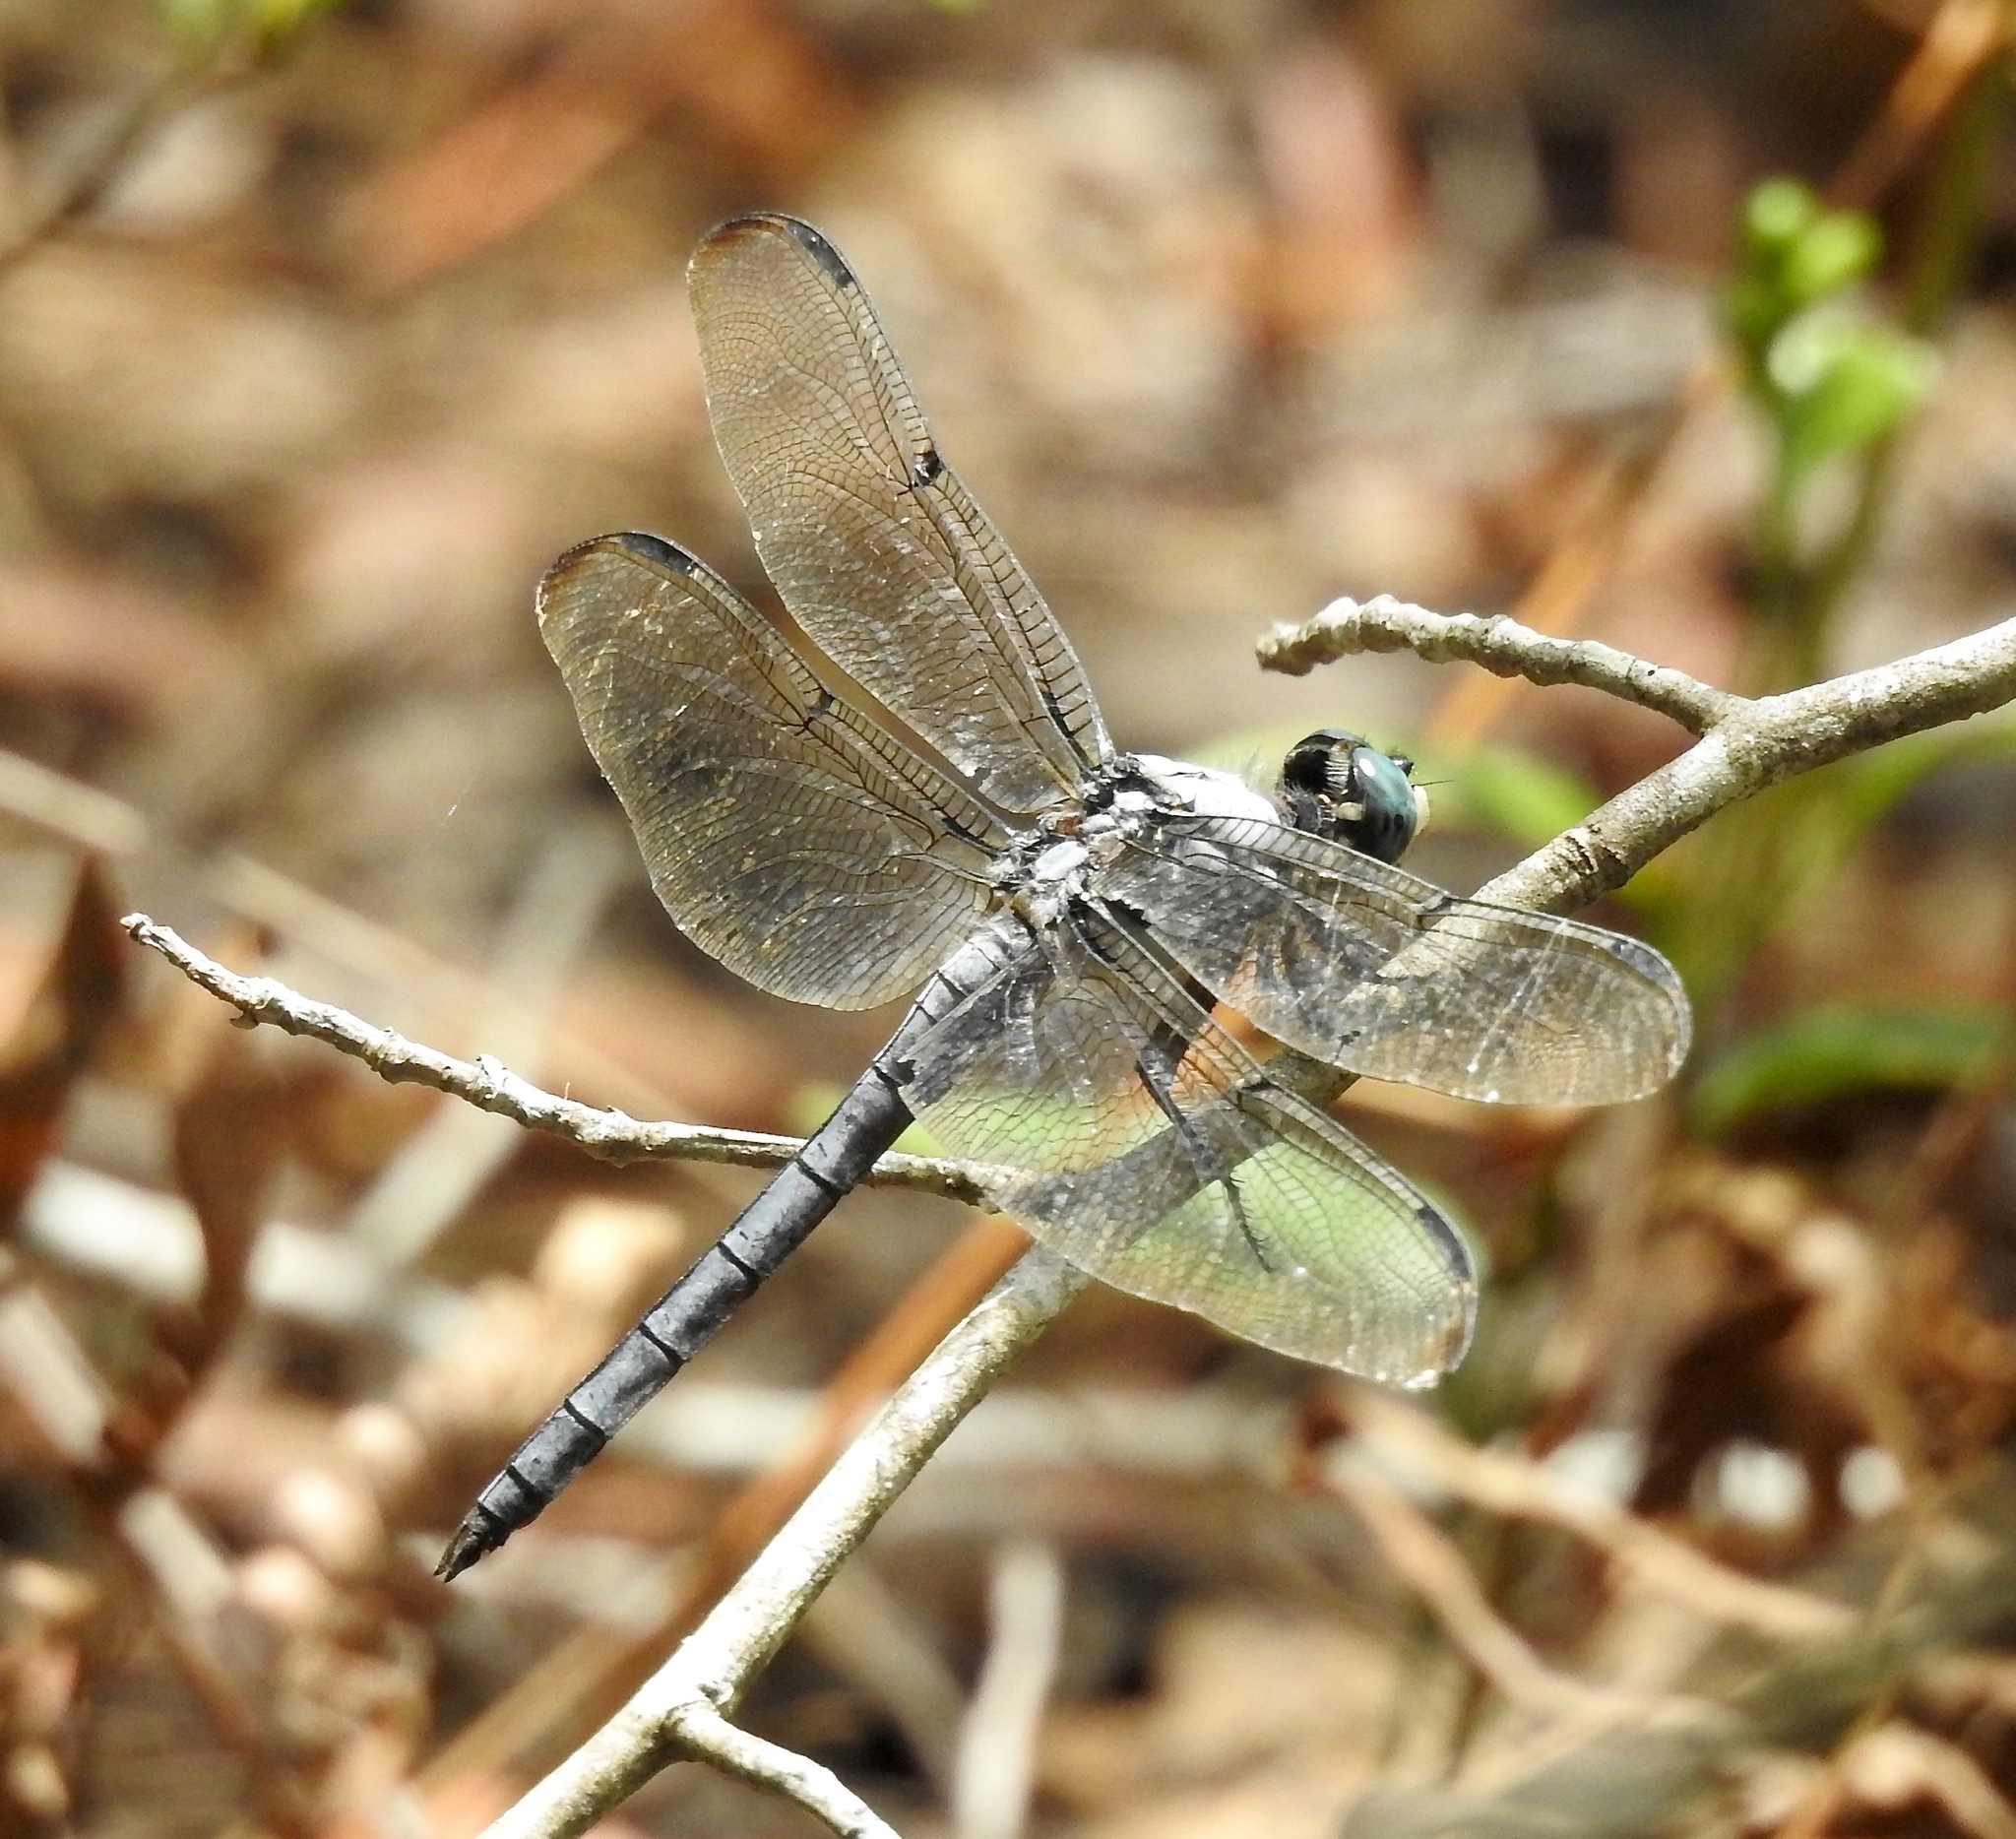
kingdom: Animalia
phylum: Arthropoda
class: Insecta
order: Odonata
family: Libellulidae
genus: Libellula
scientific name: Libellula vibrans
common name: Great blue skimmer
